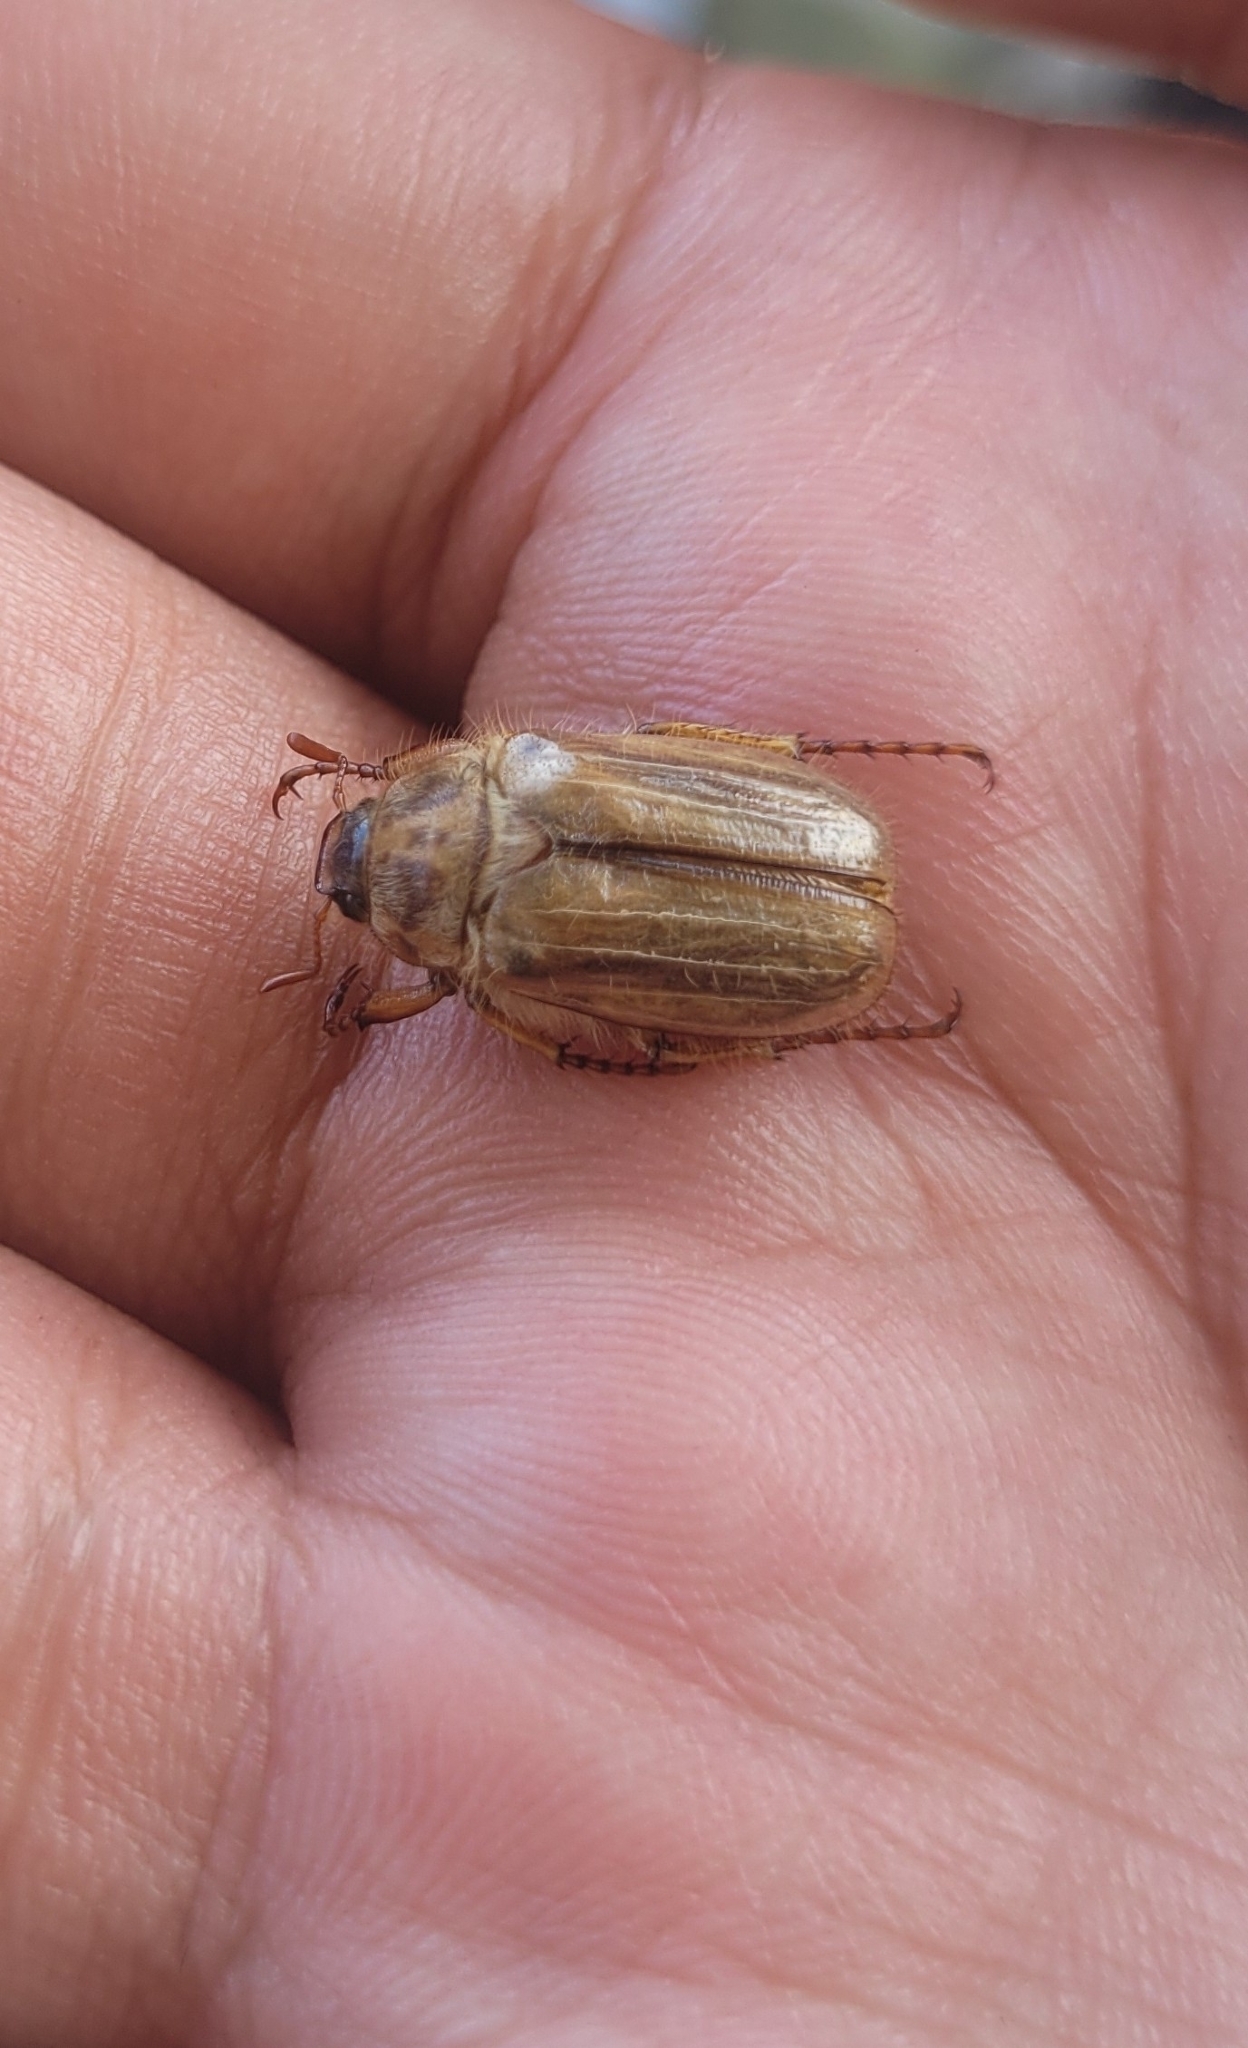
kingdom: Animalia
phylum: Arthropoda
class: Insecta
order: Coleoptera
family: Scarabaeidae
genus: Amphimallon
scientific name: Amphimallon solstitiale
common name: Summer chafer
